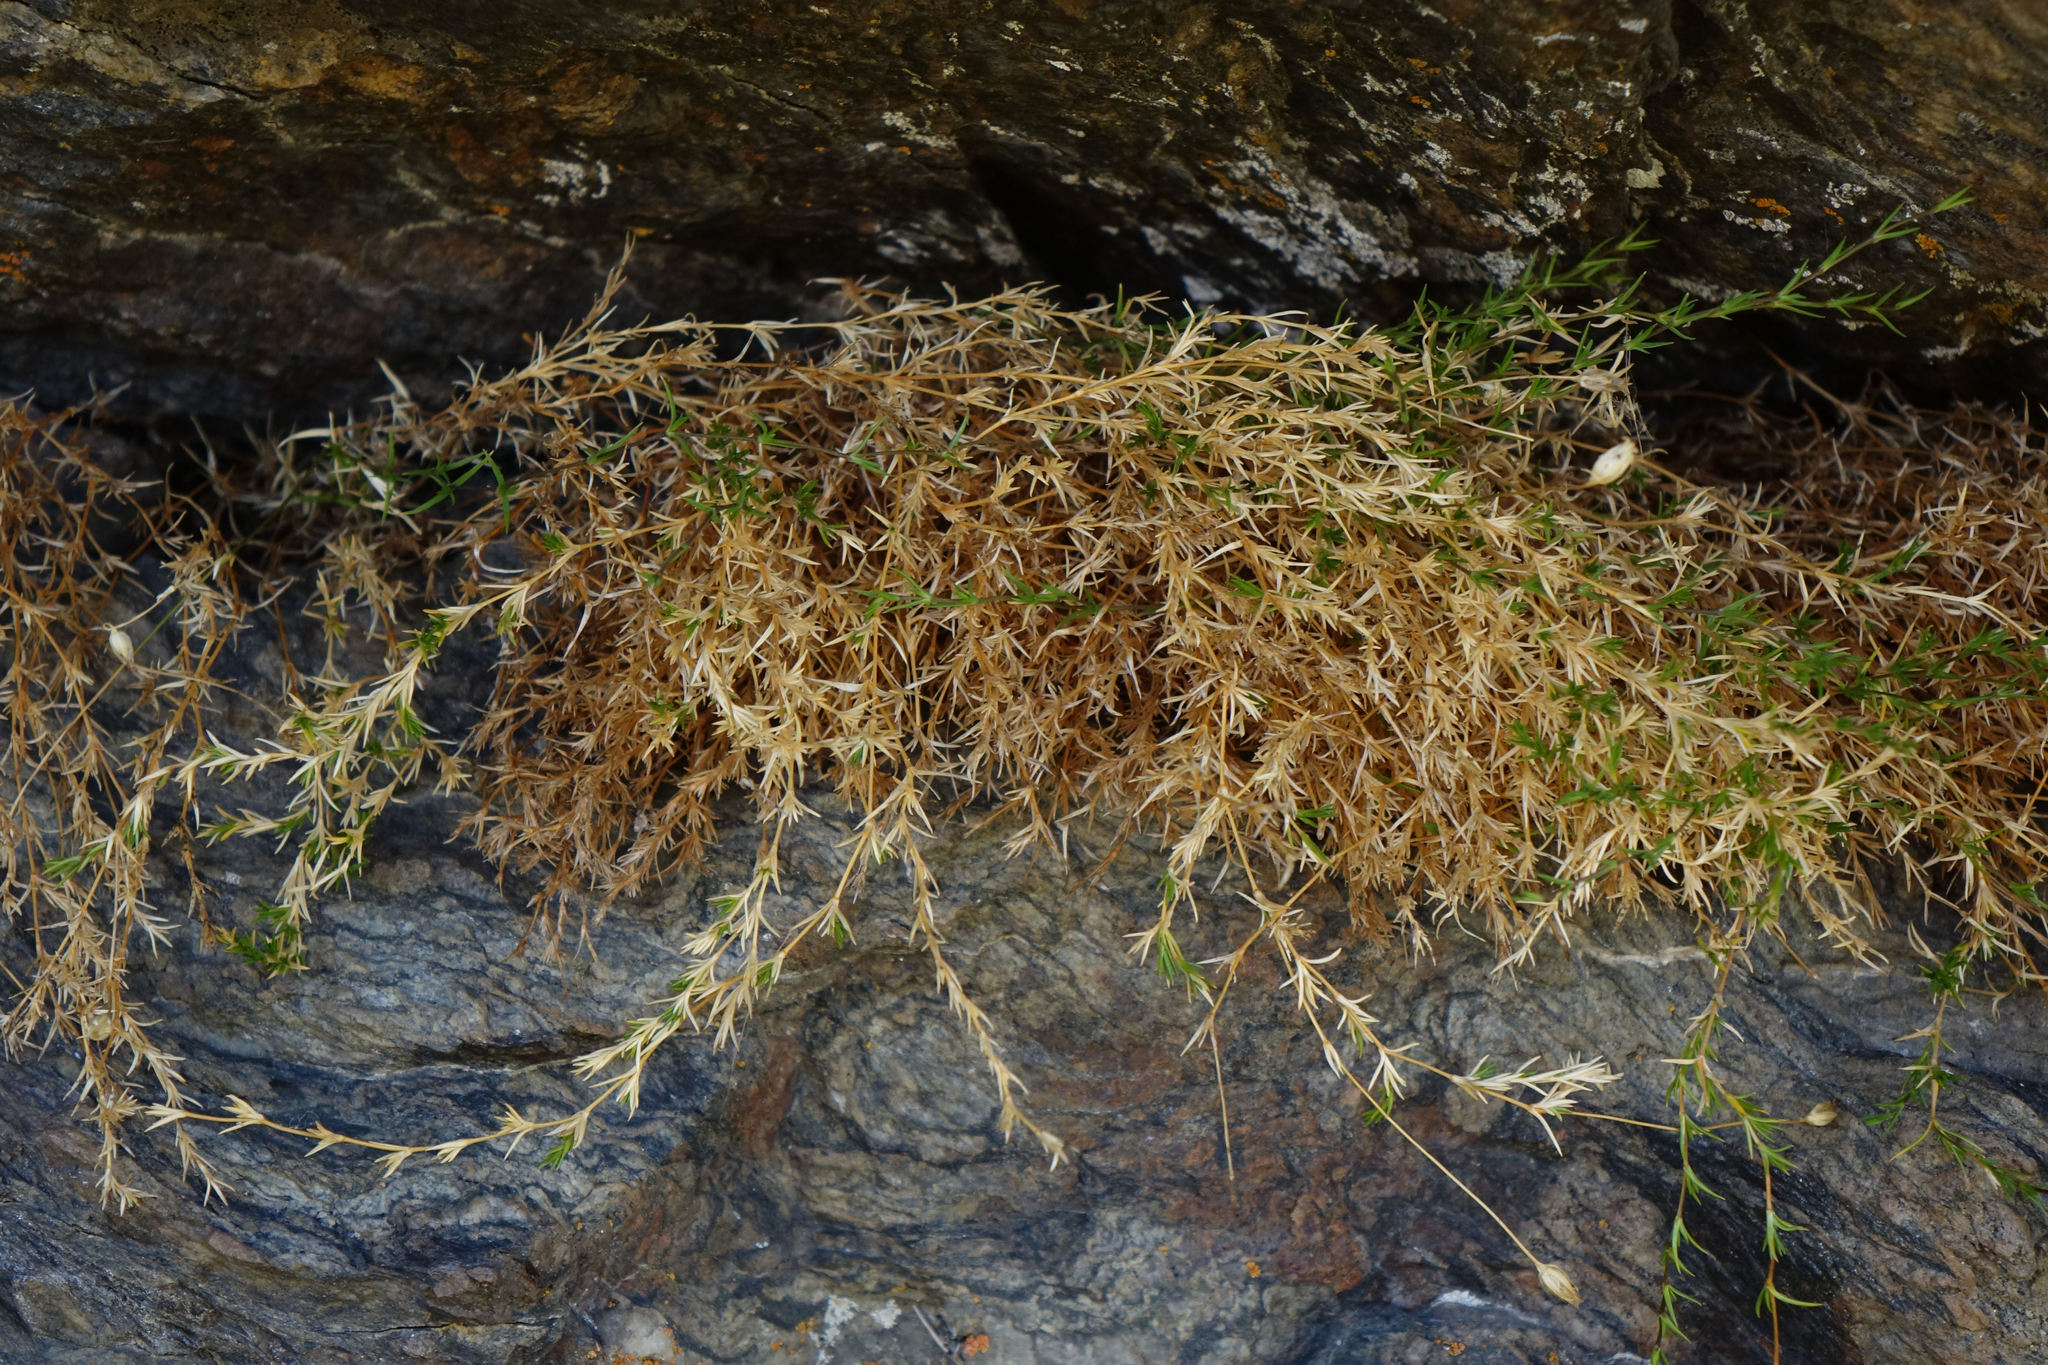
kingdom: Plantae
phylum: Tracheophyta
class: Magnoliopsida
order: Caryophyllales
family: Caryophyllaceae
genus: Stellaria
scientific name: Stellaria gracilenta
